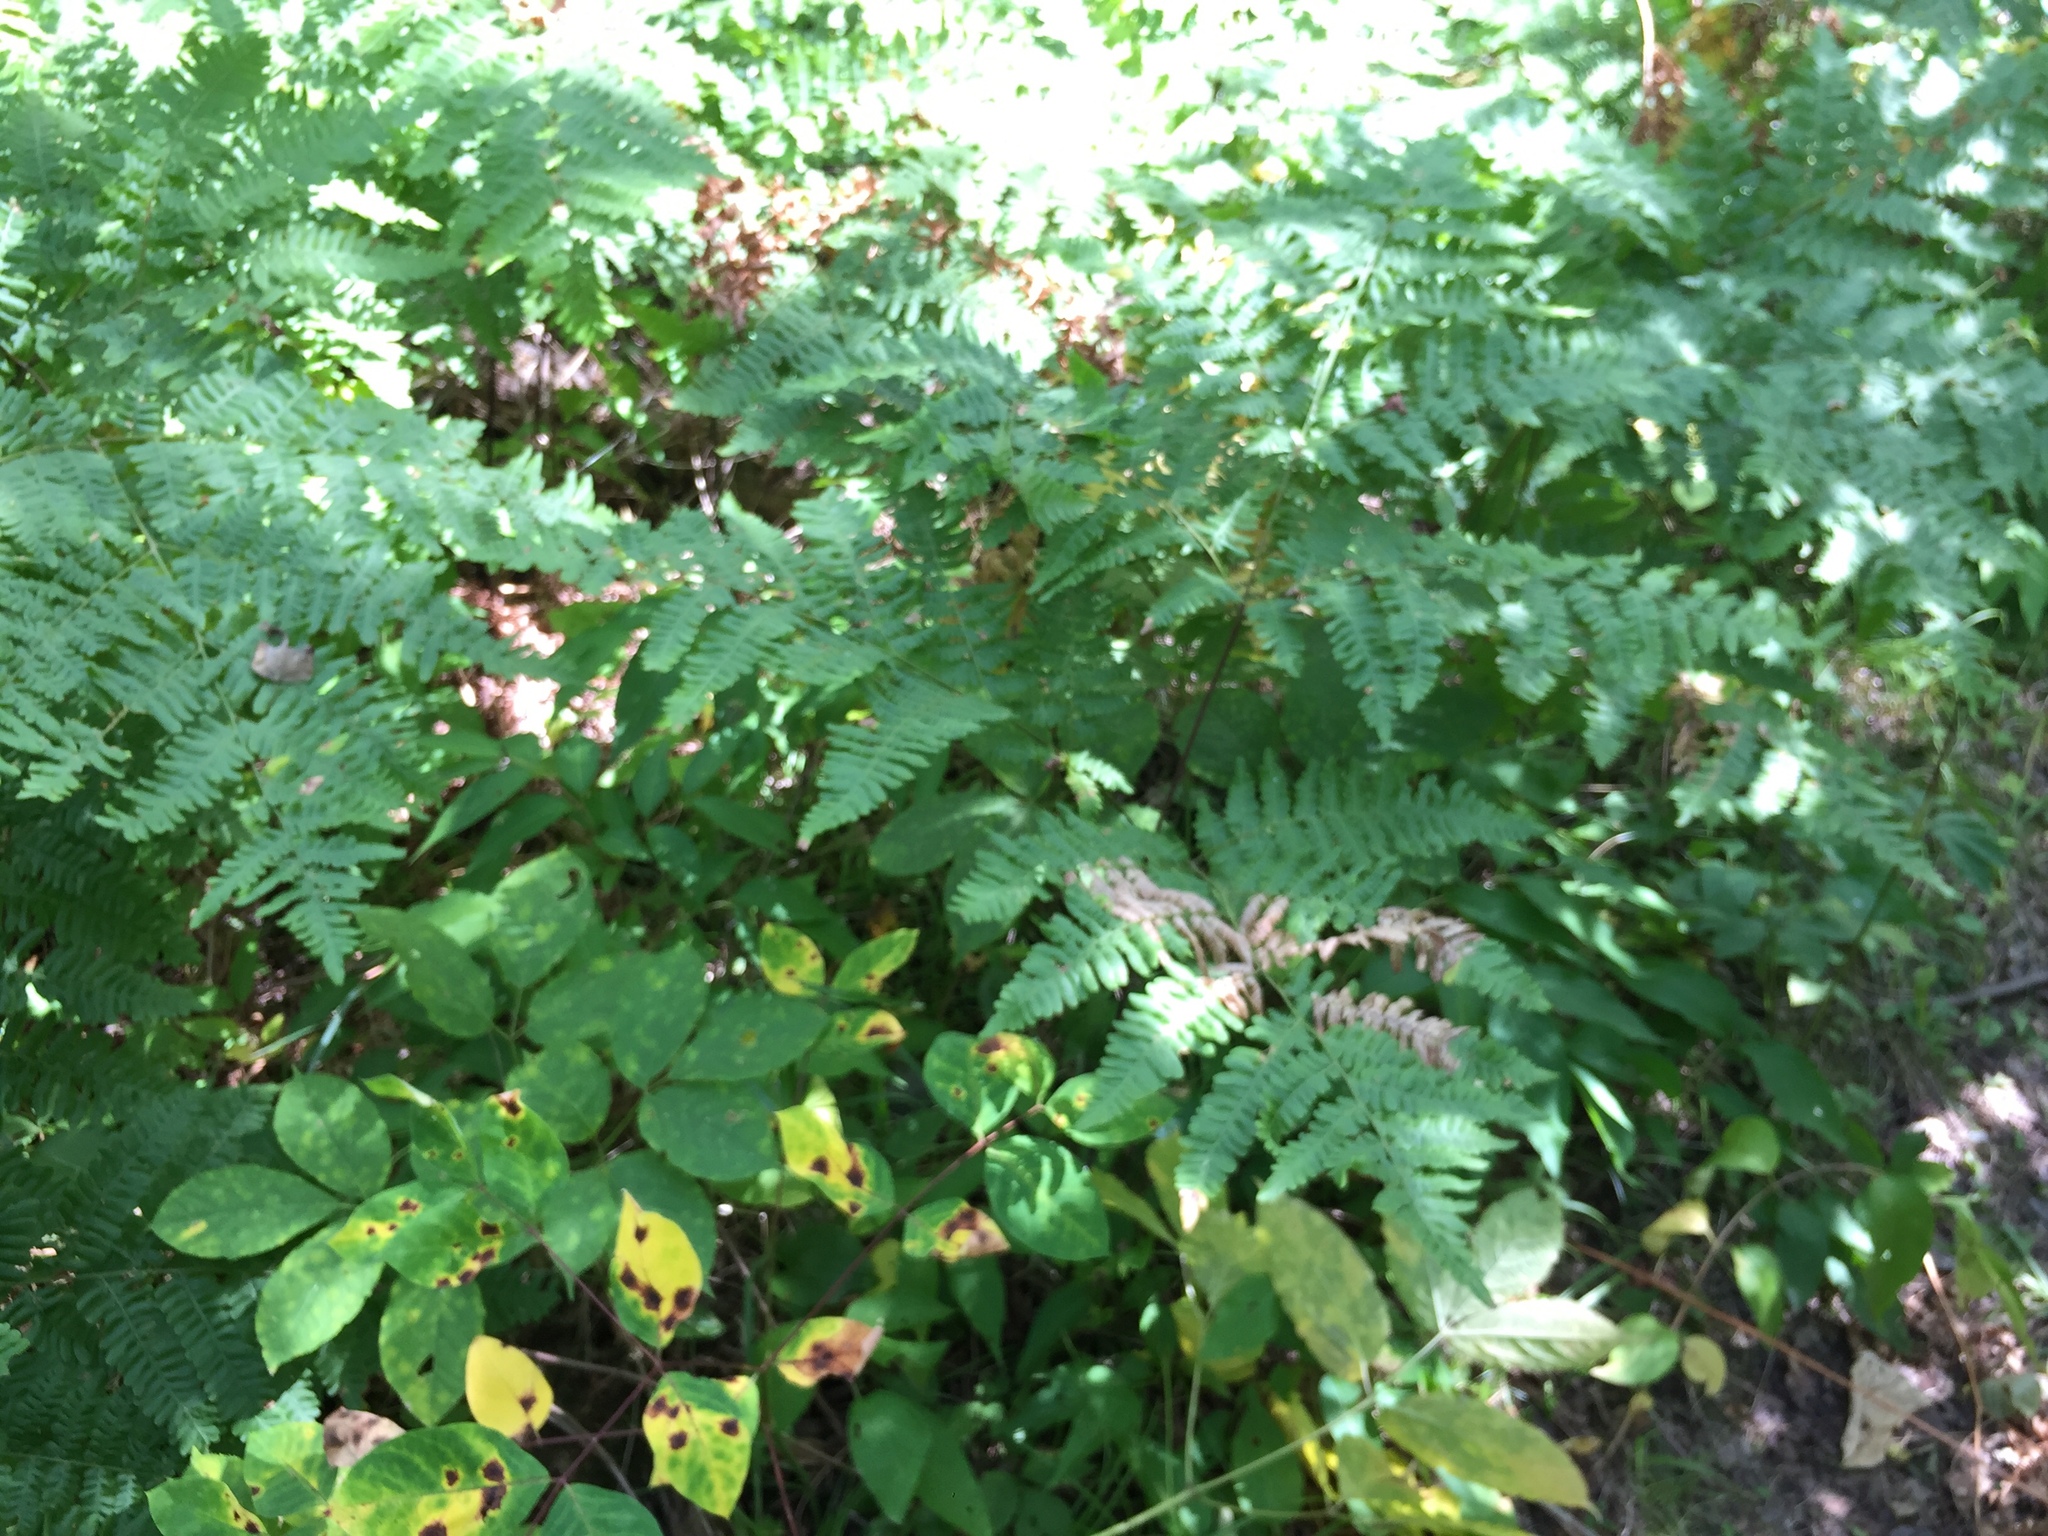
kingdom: Plantae
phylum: Tracheophyta
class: Polypodiopsida
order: Polypodiales
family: Dennstaedtiaceae
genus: Pteridium
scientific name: Pteridium aquilinum
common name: Bracken
